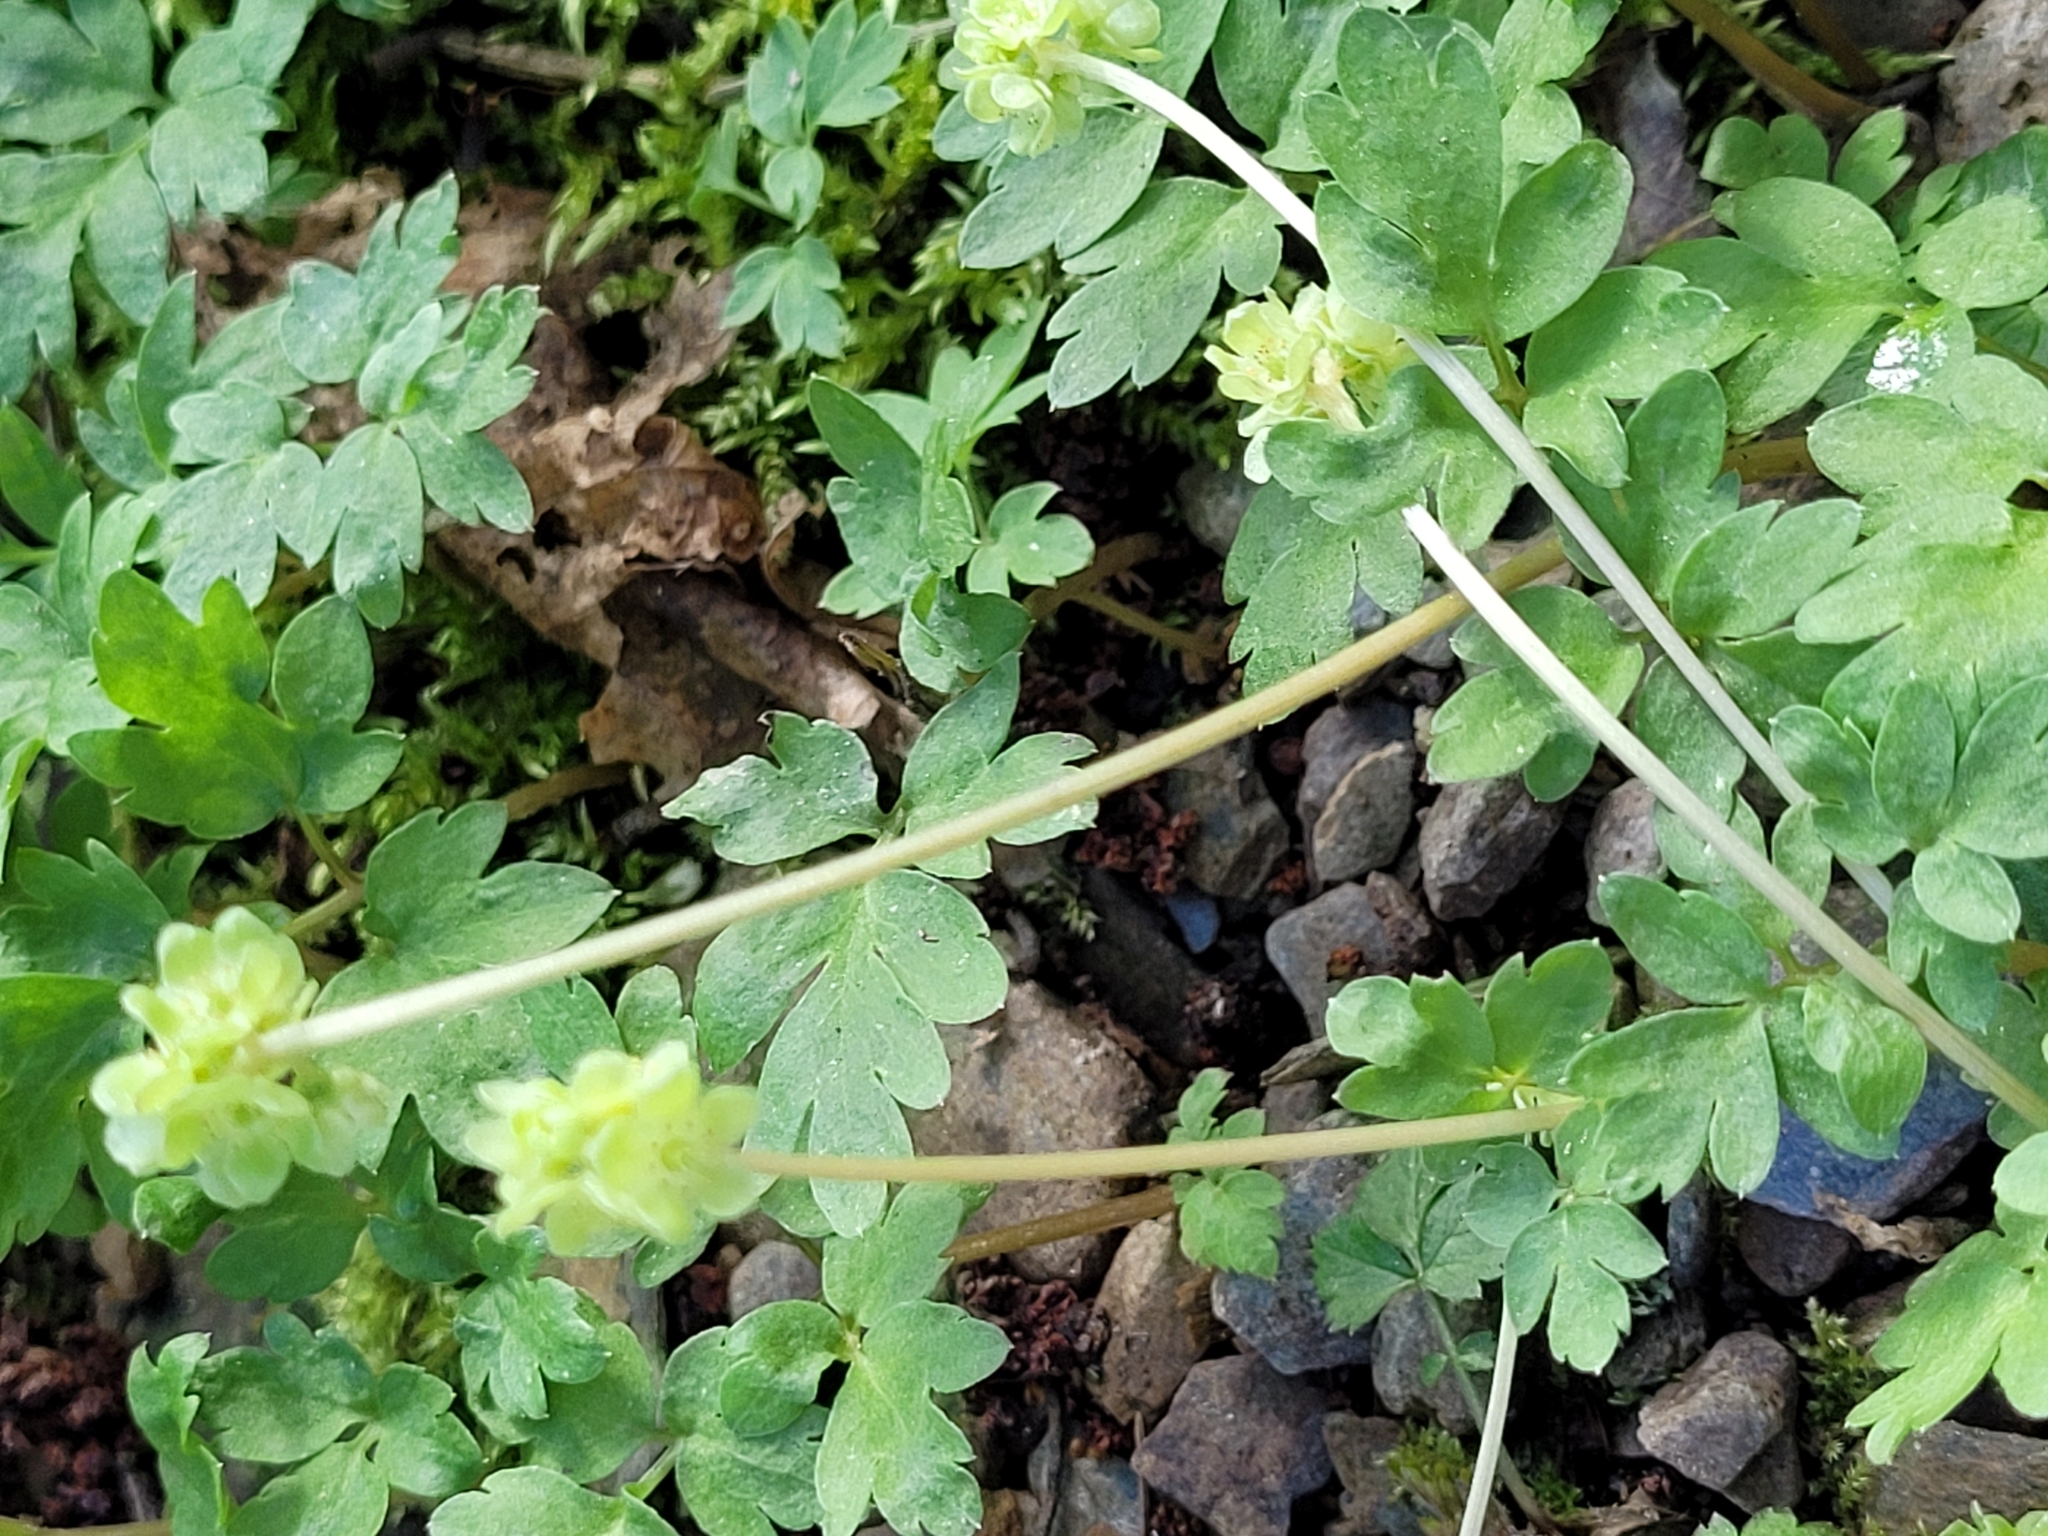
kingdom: Plantae
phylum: Tracheophyta
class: Magnoliopsida
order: Dipsacales
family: Viburnaceae
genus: Adoxa
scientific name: Adoxa moschatellina
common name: Moschatel
